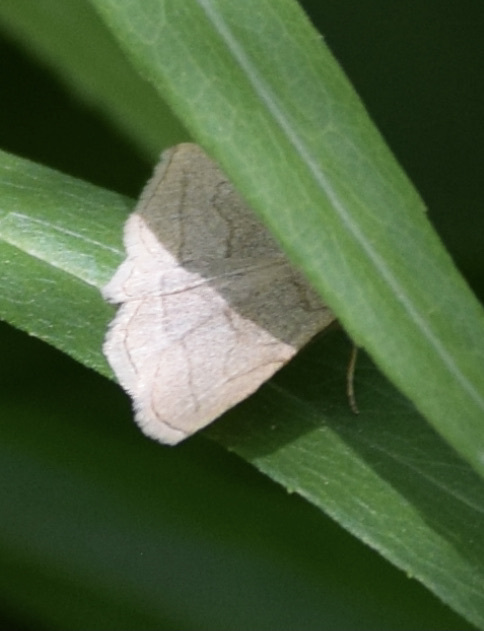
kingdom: Animalia
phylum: Arthropoda
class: Insecta
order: Lepidoptera
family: Erebidae
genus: Zanclognatha
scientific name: Zanclognatha pedipilalis
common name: Grayish fan-foot
